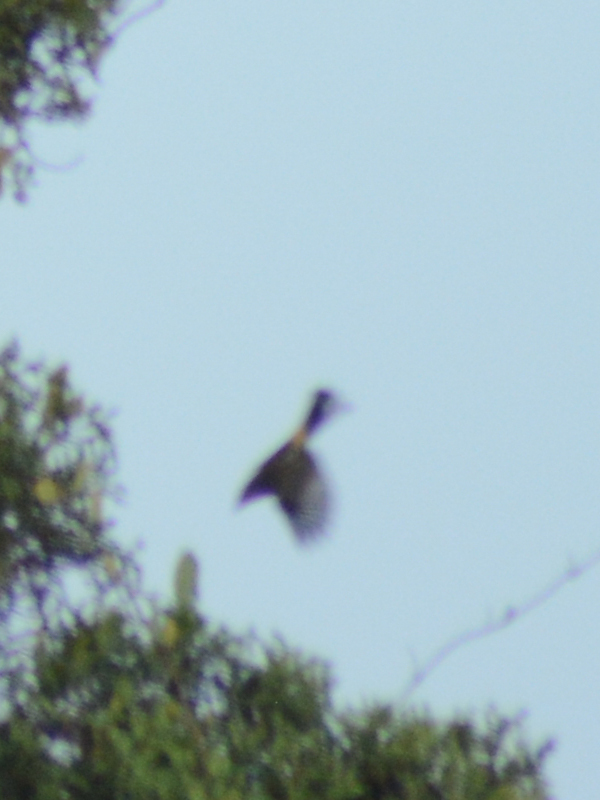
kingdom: Animalia
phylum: Chordata
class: Aves
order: Passeriformes
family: Parulidae
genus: Setophaga
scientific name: Setophaga coronata
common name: Myrtle warbler
